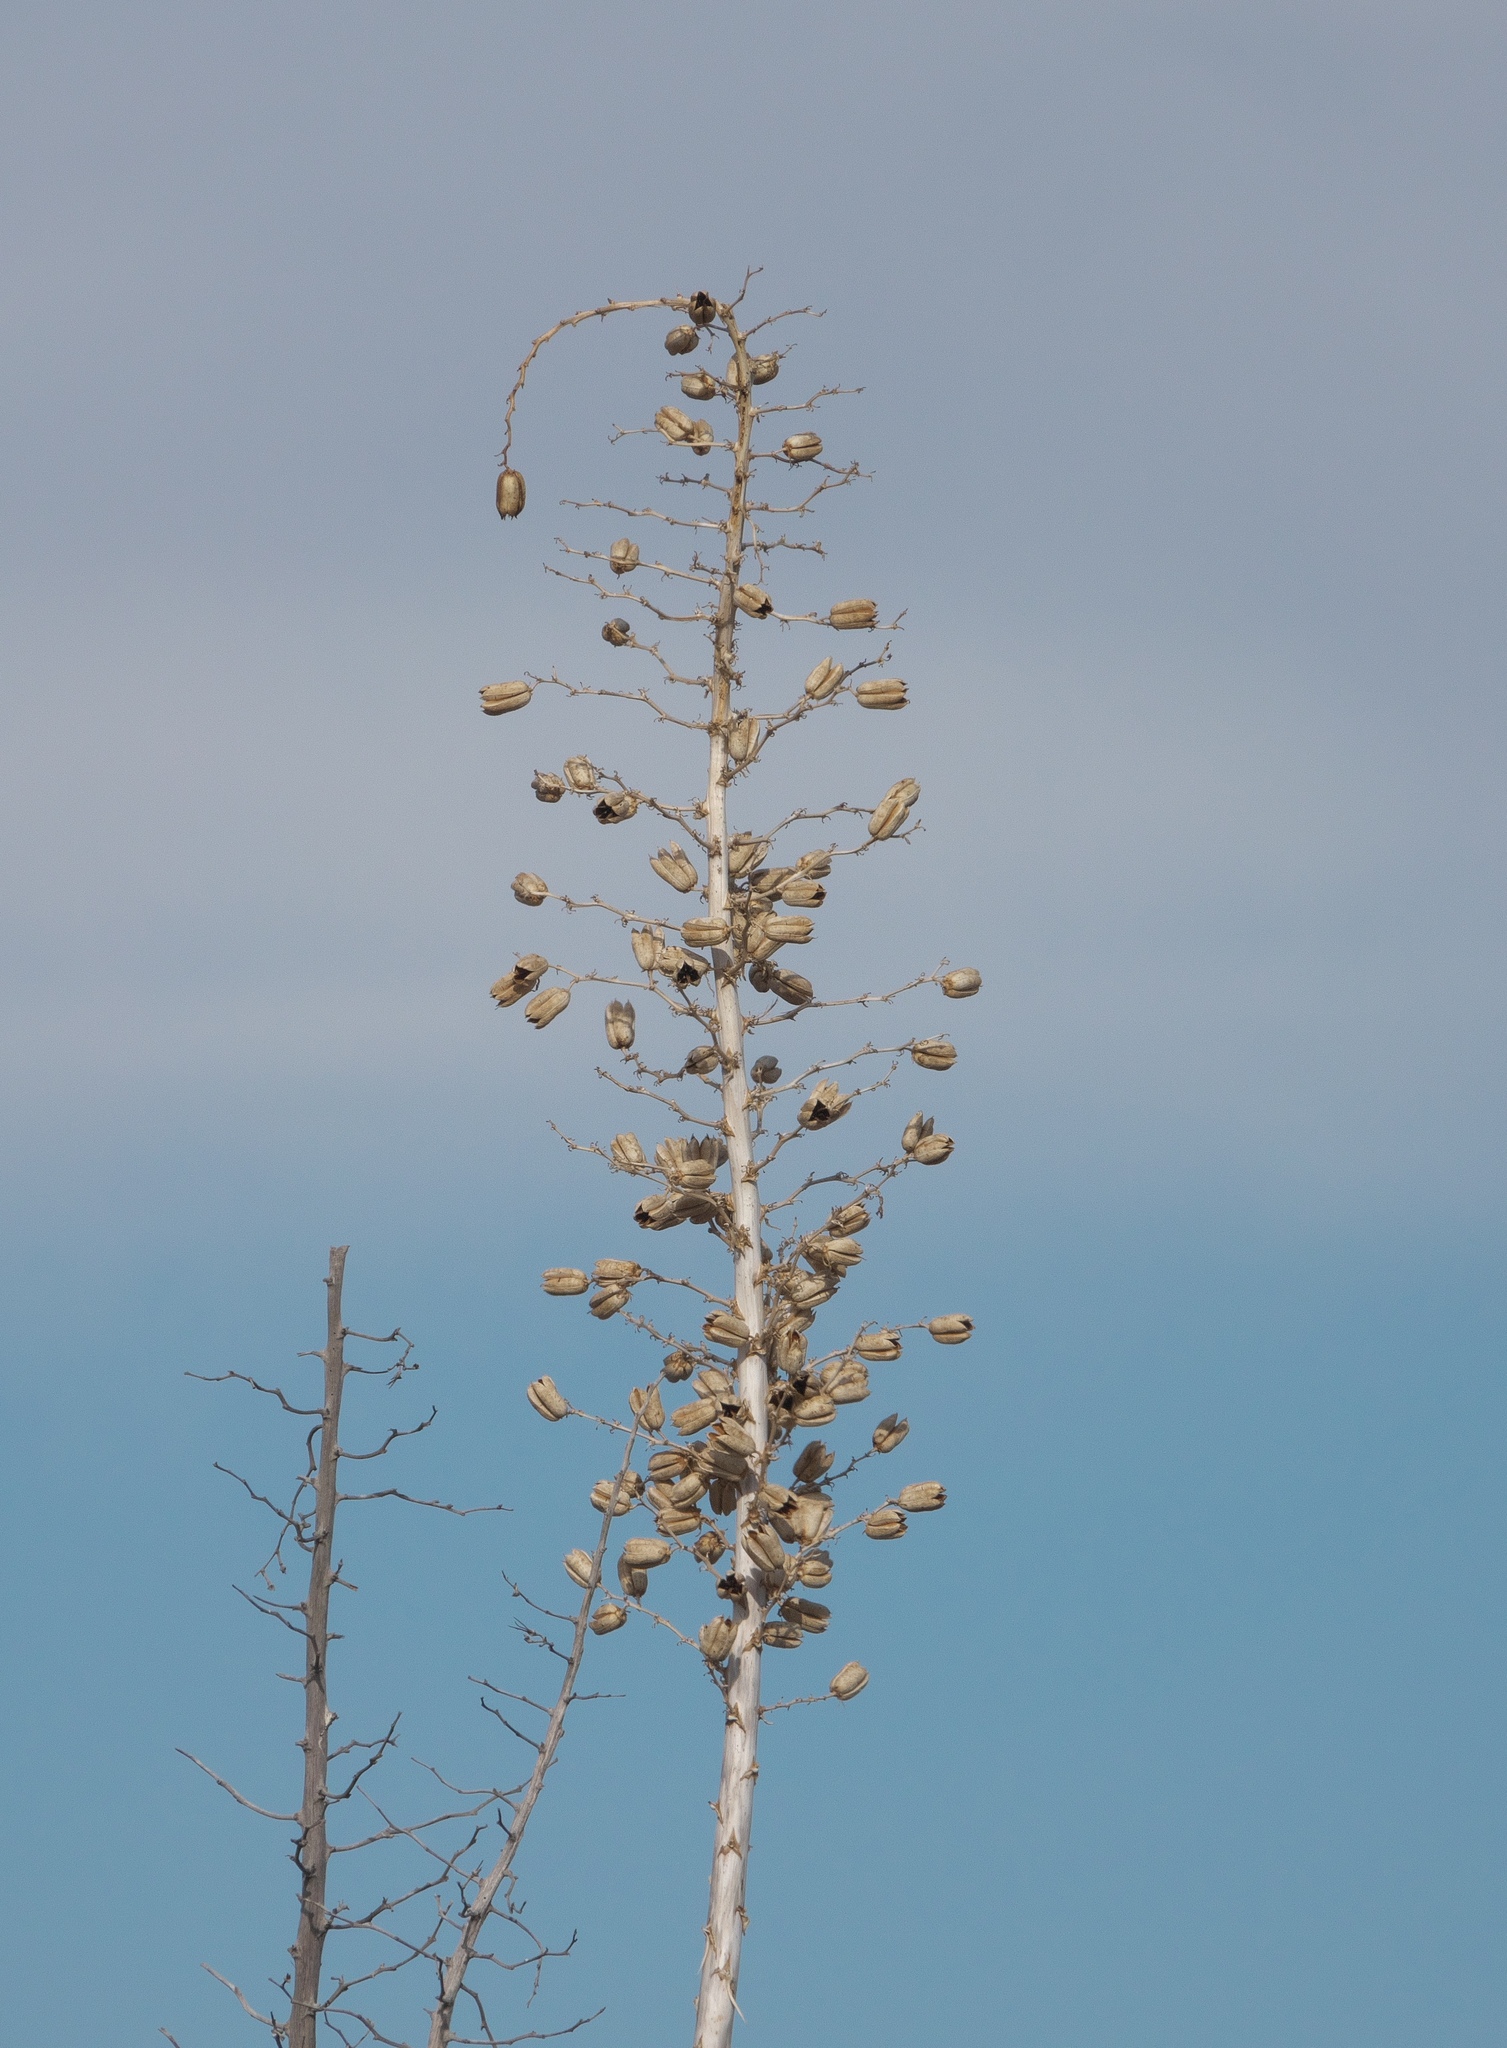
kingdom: Plantae
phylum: Tracheophyta
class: Liliopsida
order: Asparagales
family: Asparagaceae
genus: Yucca
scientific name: Yucca elata
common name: Palmella
